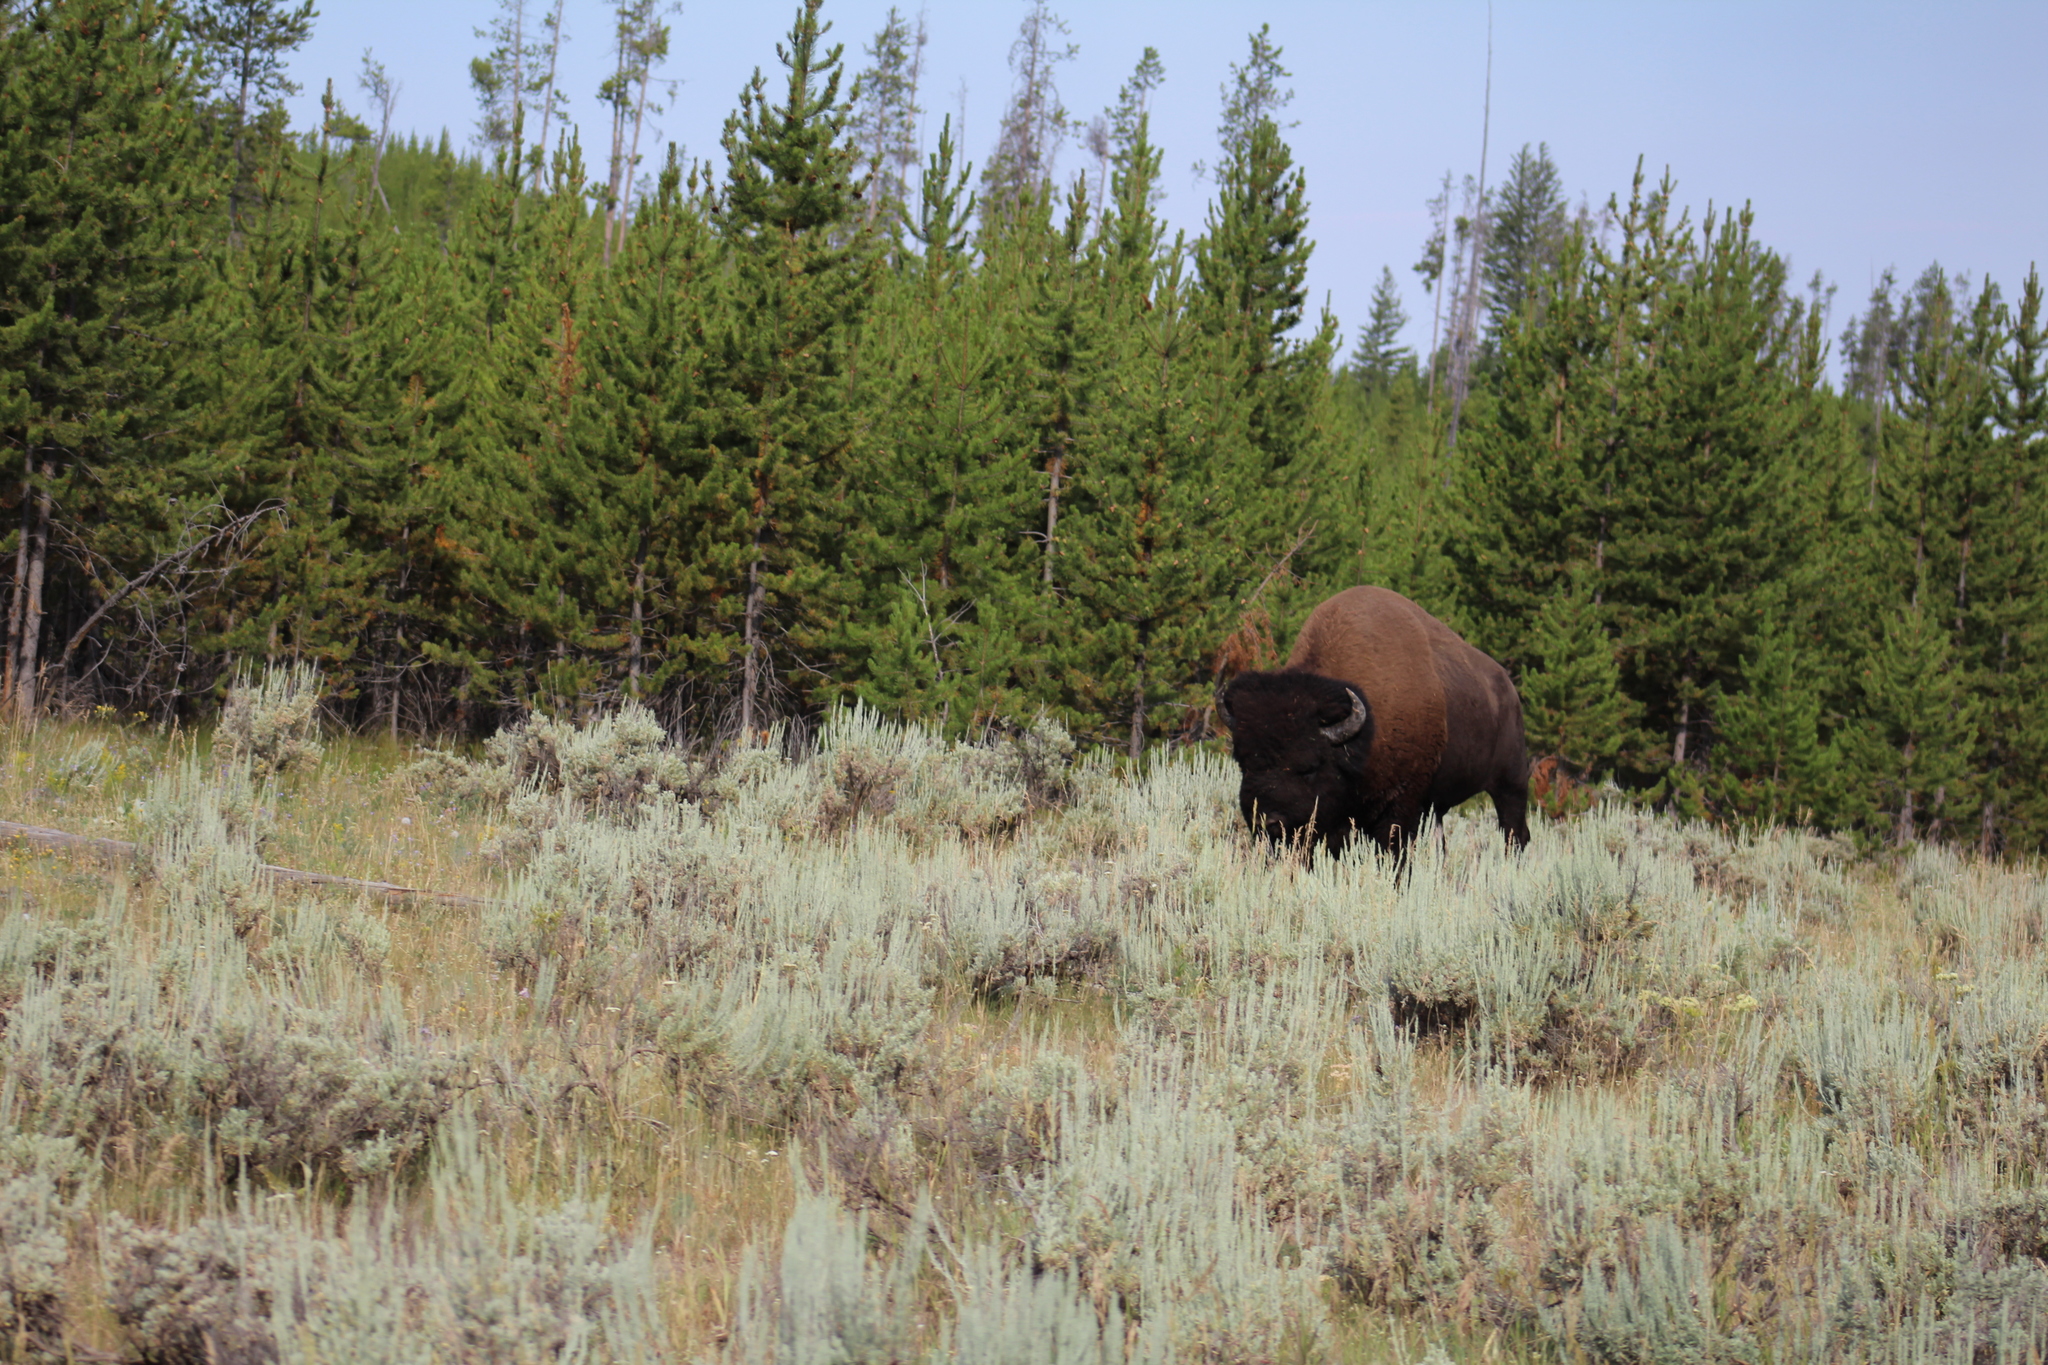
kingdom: Animalia
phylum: Chordata
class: Mammalia
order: Artiodactyla
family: Bovidae
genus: Bison
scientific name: Bison bison
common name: American bison
